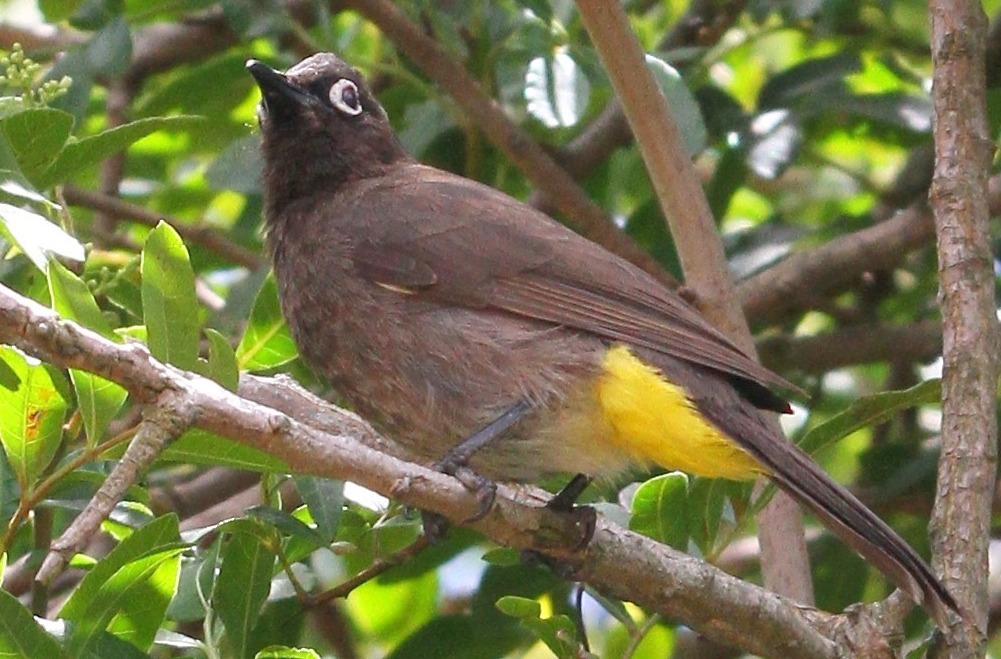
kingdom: Animalia
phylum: Chordata
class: Aves
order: Passeriformes
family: Pycnonotidae
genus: Pycnonotus
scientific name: Pycnonotus capensis
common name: Cape bulbul
